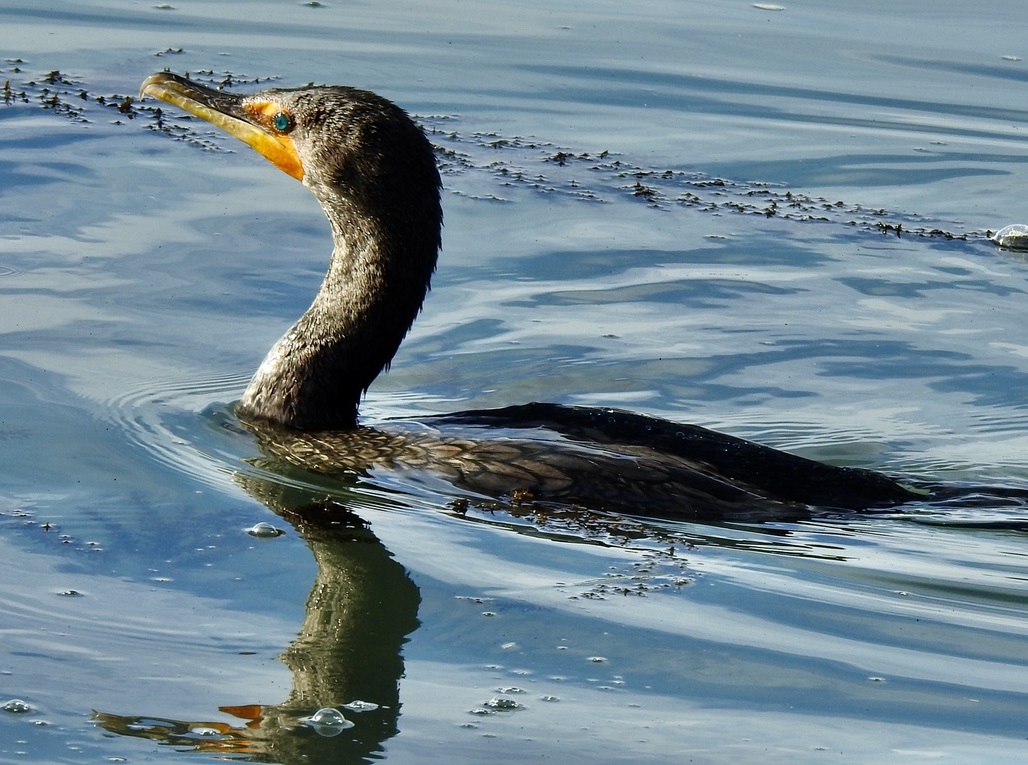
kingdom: Animalia
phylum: Chordata
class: Aves
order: Suliformes
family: Phalacrocoracidae
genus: Phalacrocorax
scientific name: Phalacrocorax auritus
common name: Double-crested cormorant
